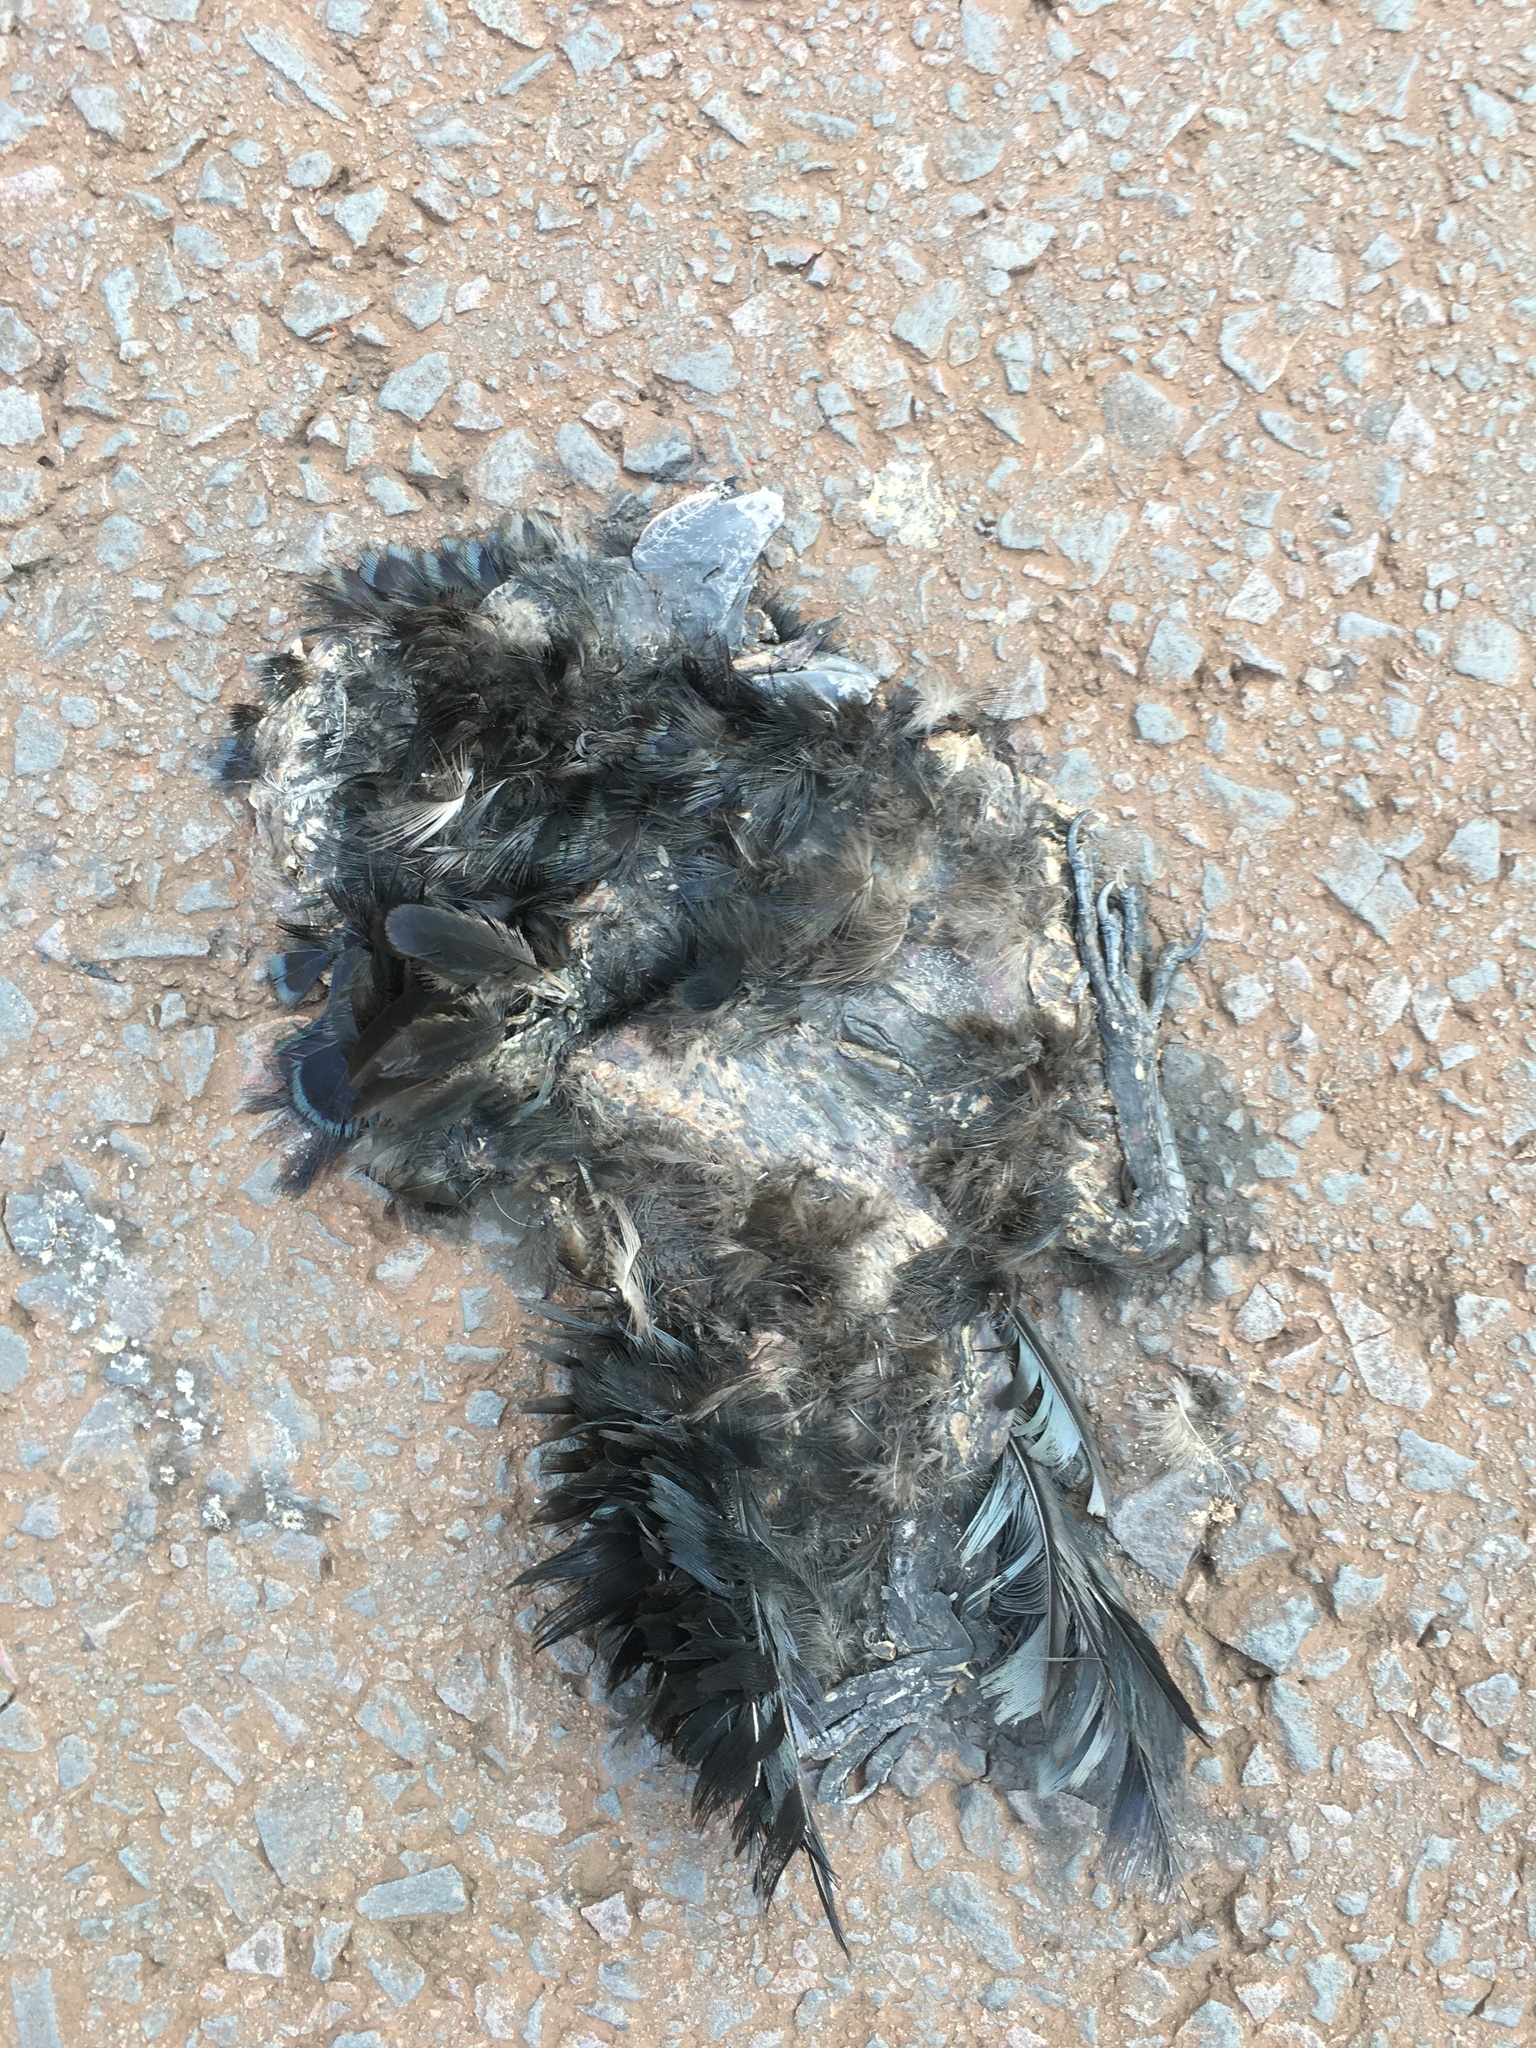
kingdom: Animalia
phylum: Chordata
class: Aves
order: Cuculiformes
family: Cuculidae
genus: Crotophaga
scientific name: Crotophaga ani
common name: Smooth-billed ani
